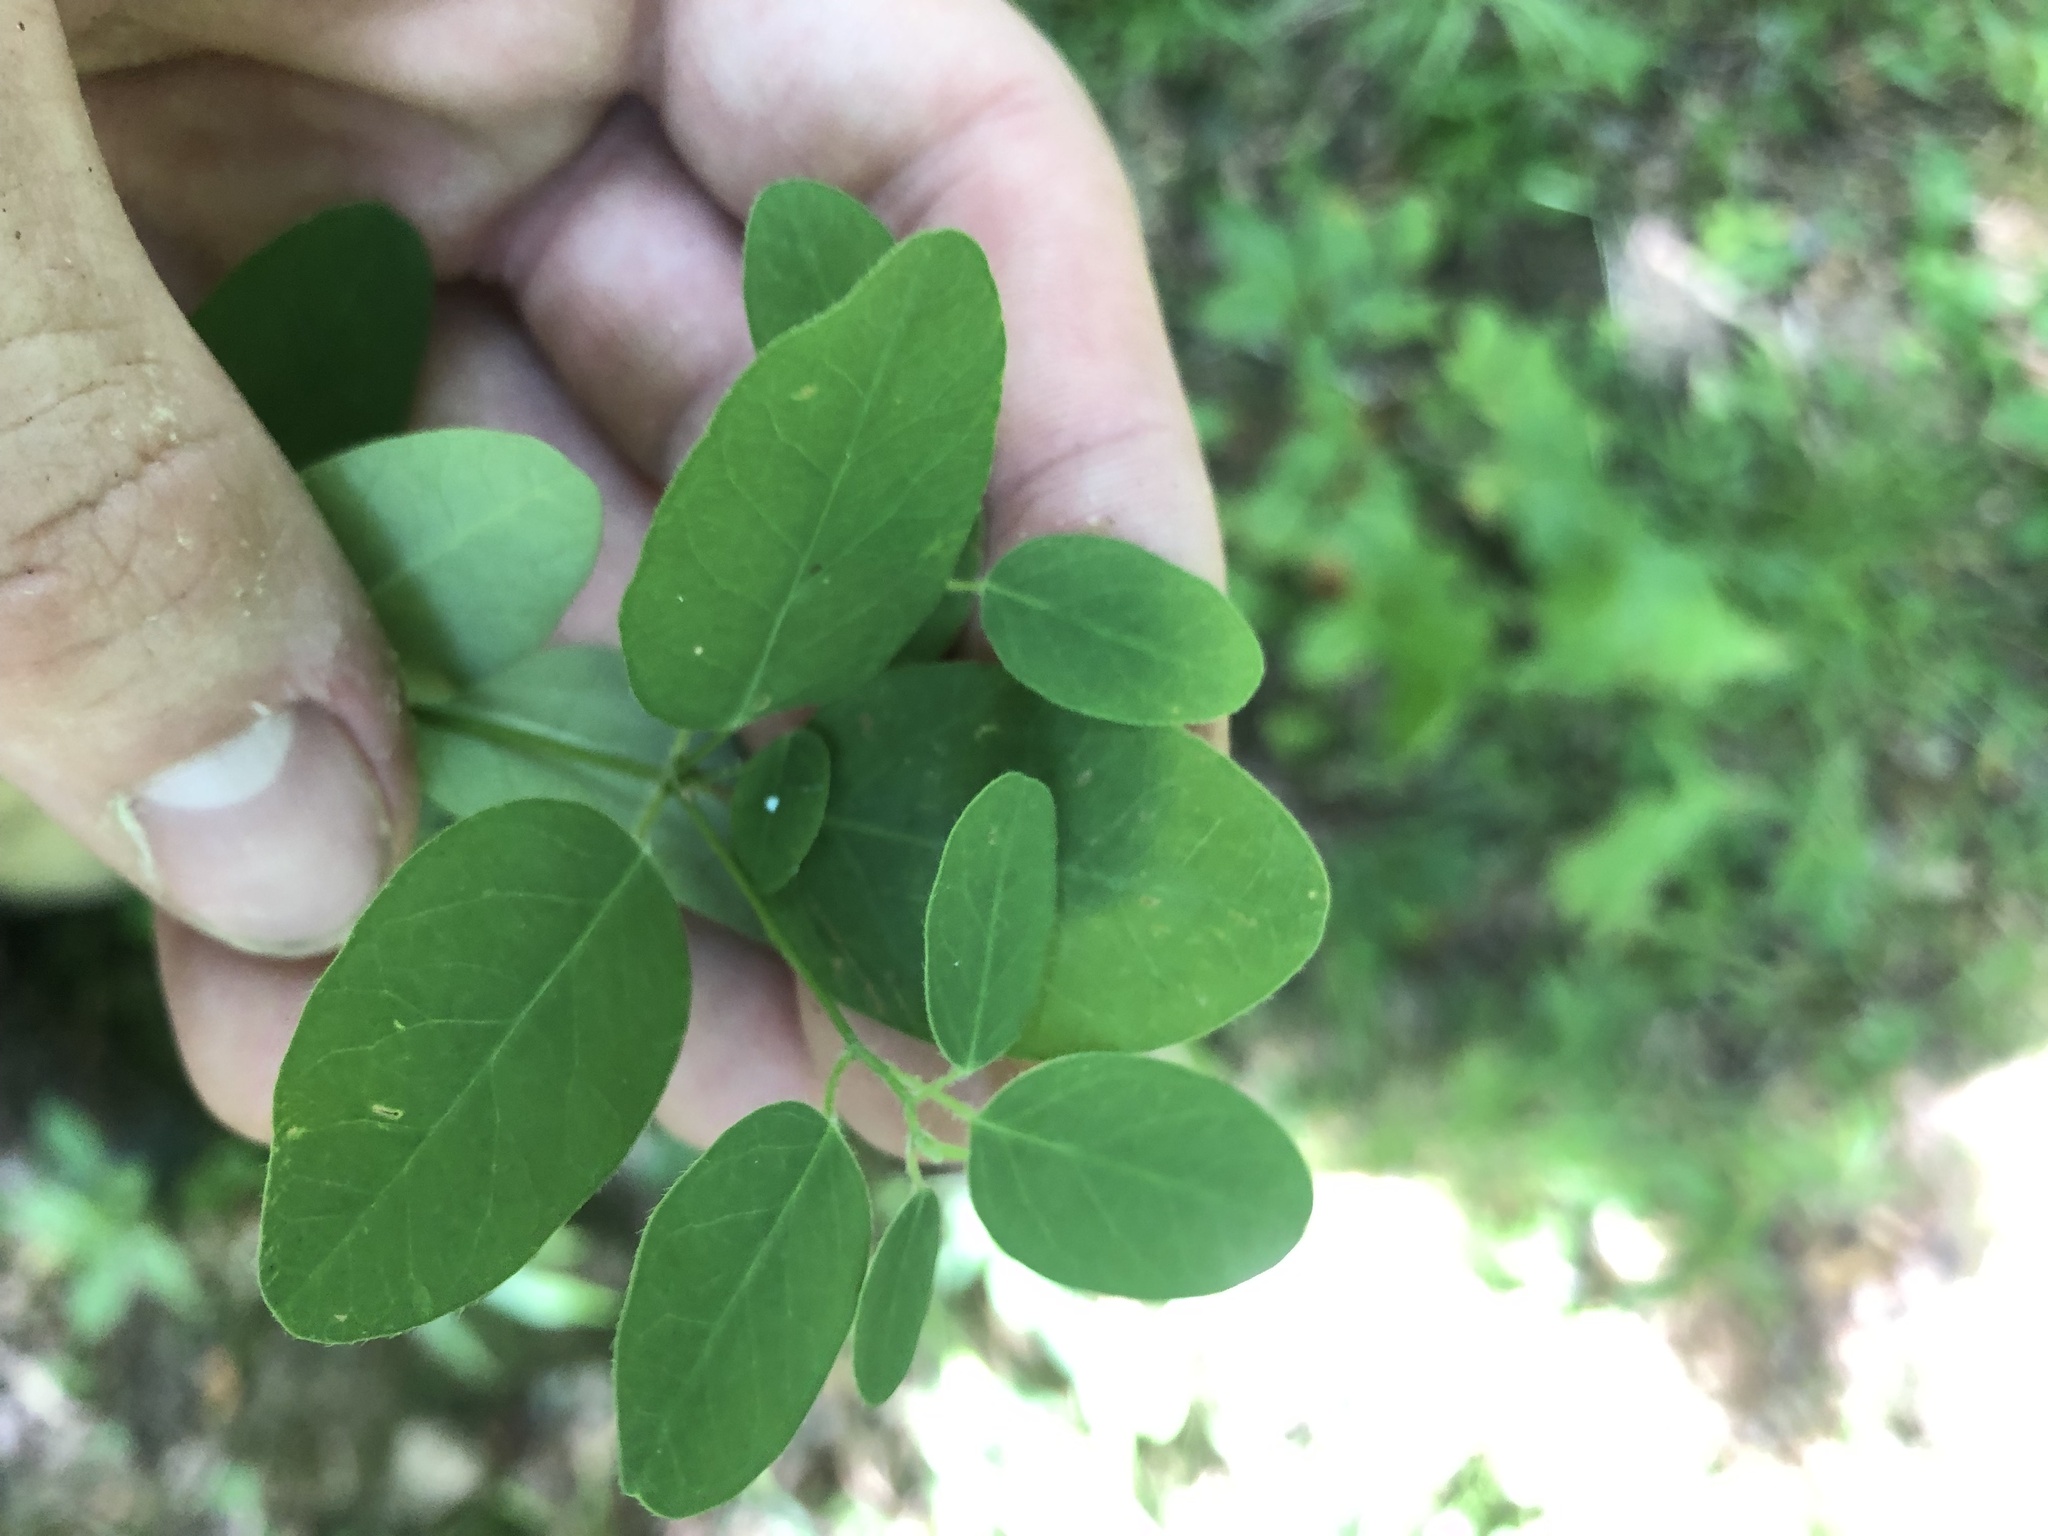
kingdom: Plantae
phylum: Tracheophyta
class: Magnoliopsida
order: Malpighiales
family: Euphorbiaceae
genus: Euphorbia
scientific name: Euphorbia pubentissima
